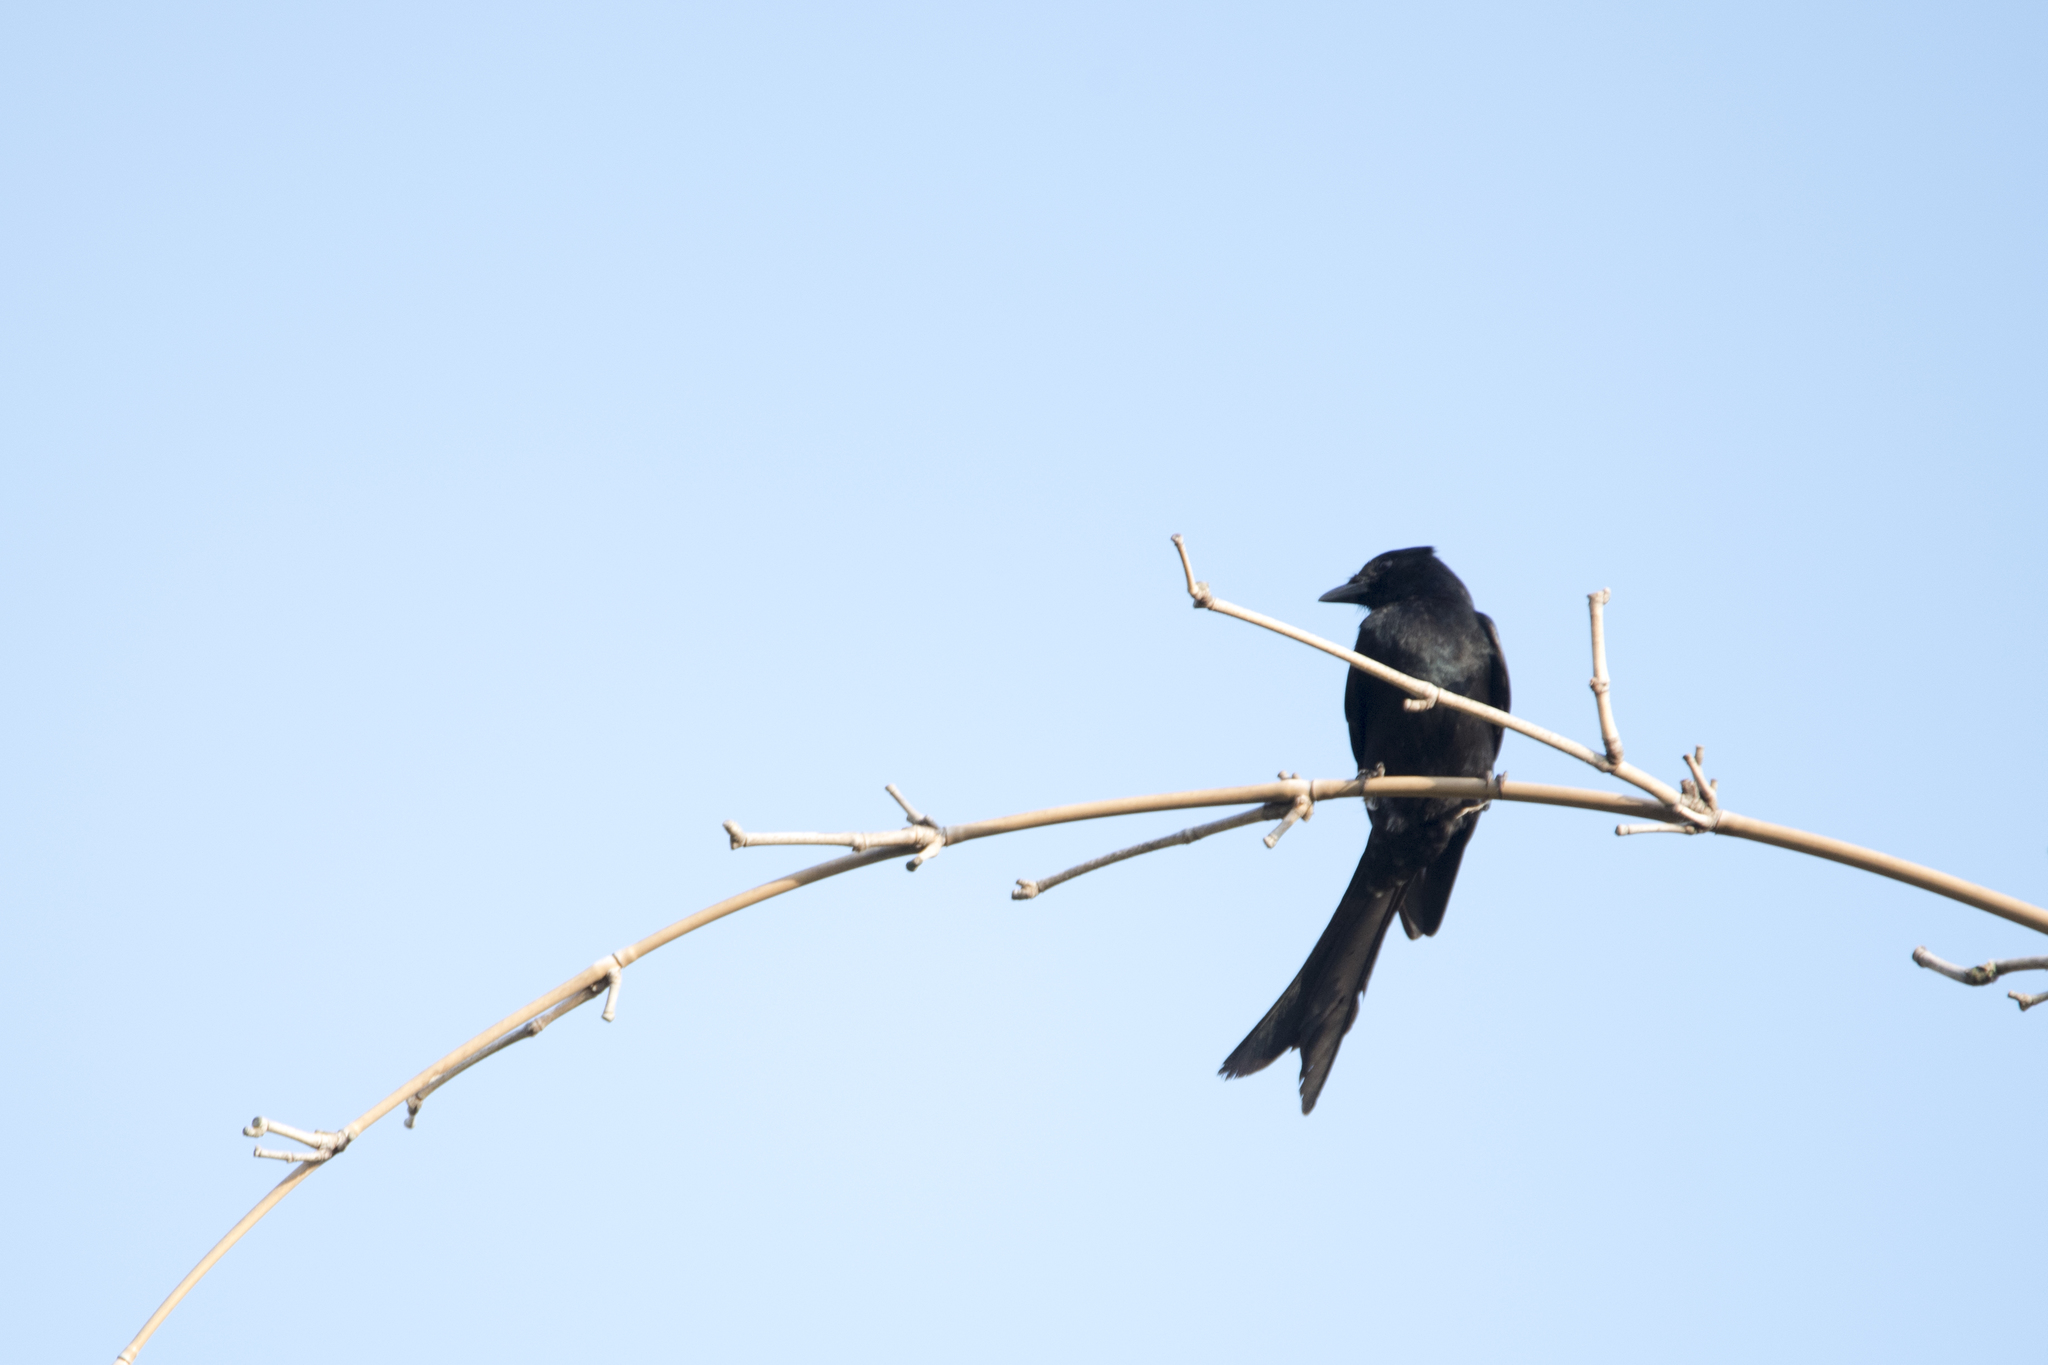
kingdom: Animalia
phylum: Chordata
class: Aves
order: Passeriformes
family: Dicruridae
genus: Dicrurus
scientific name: Dicrurus macrocercus
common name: Black drongo
